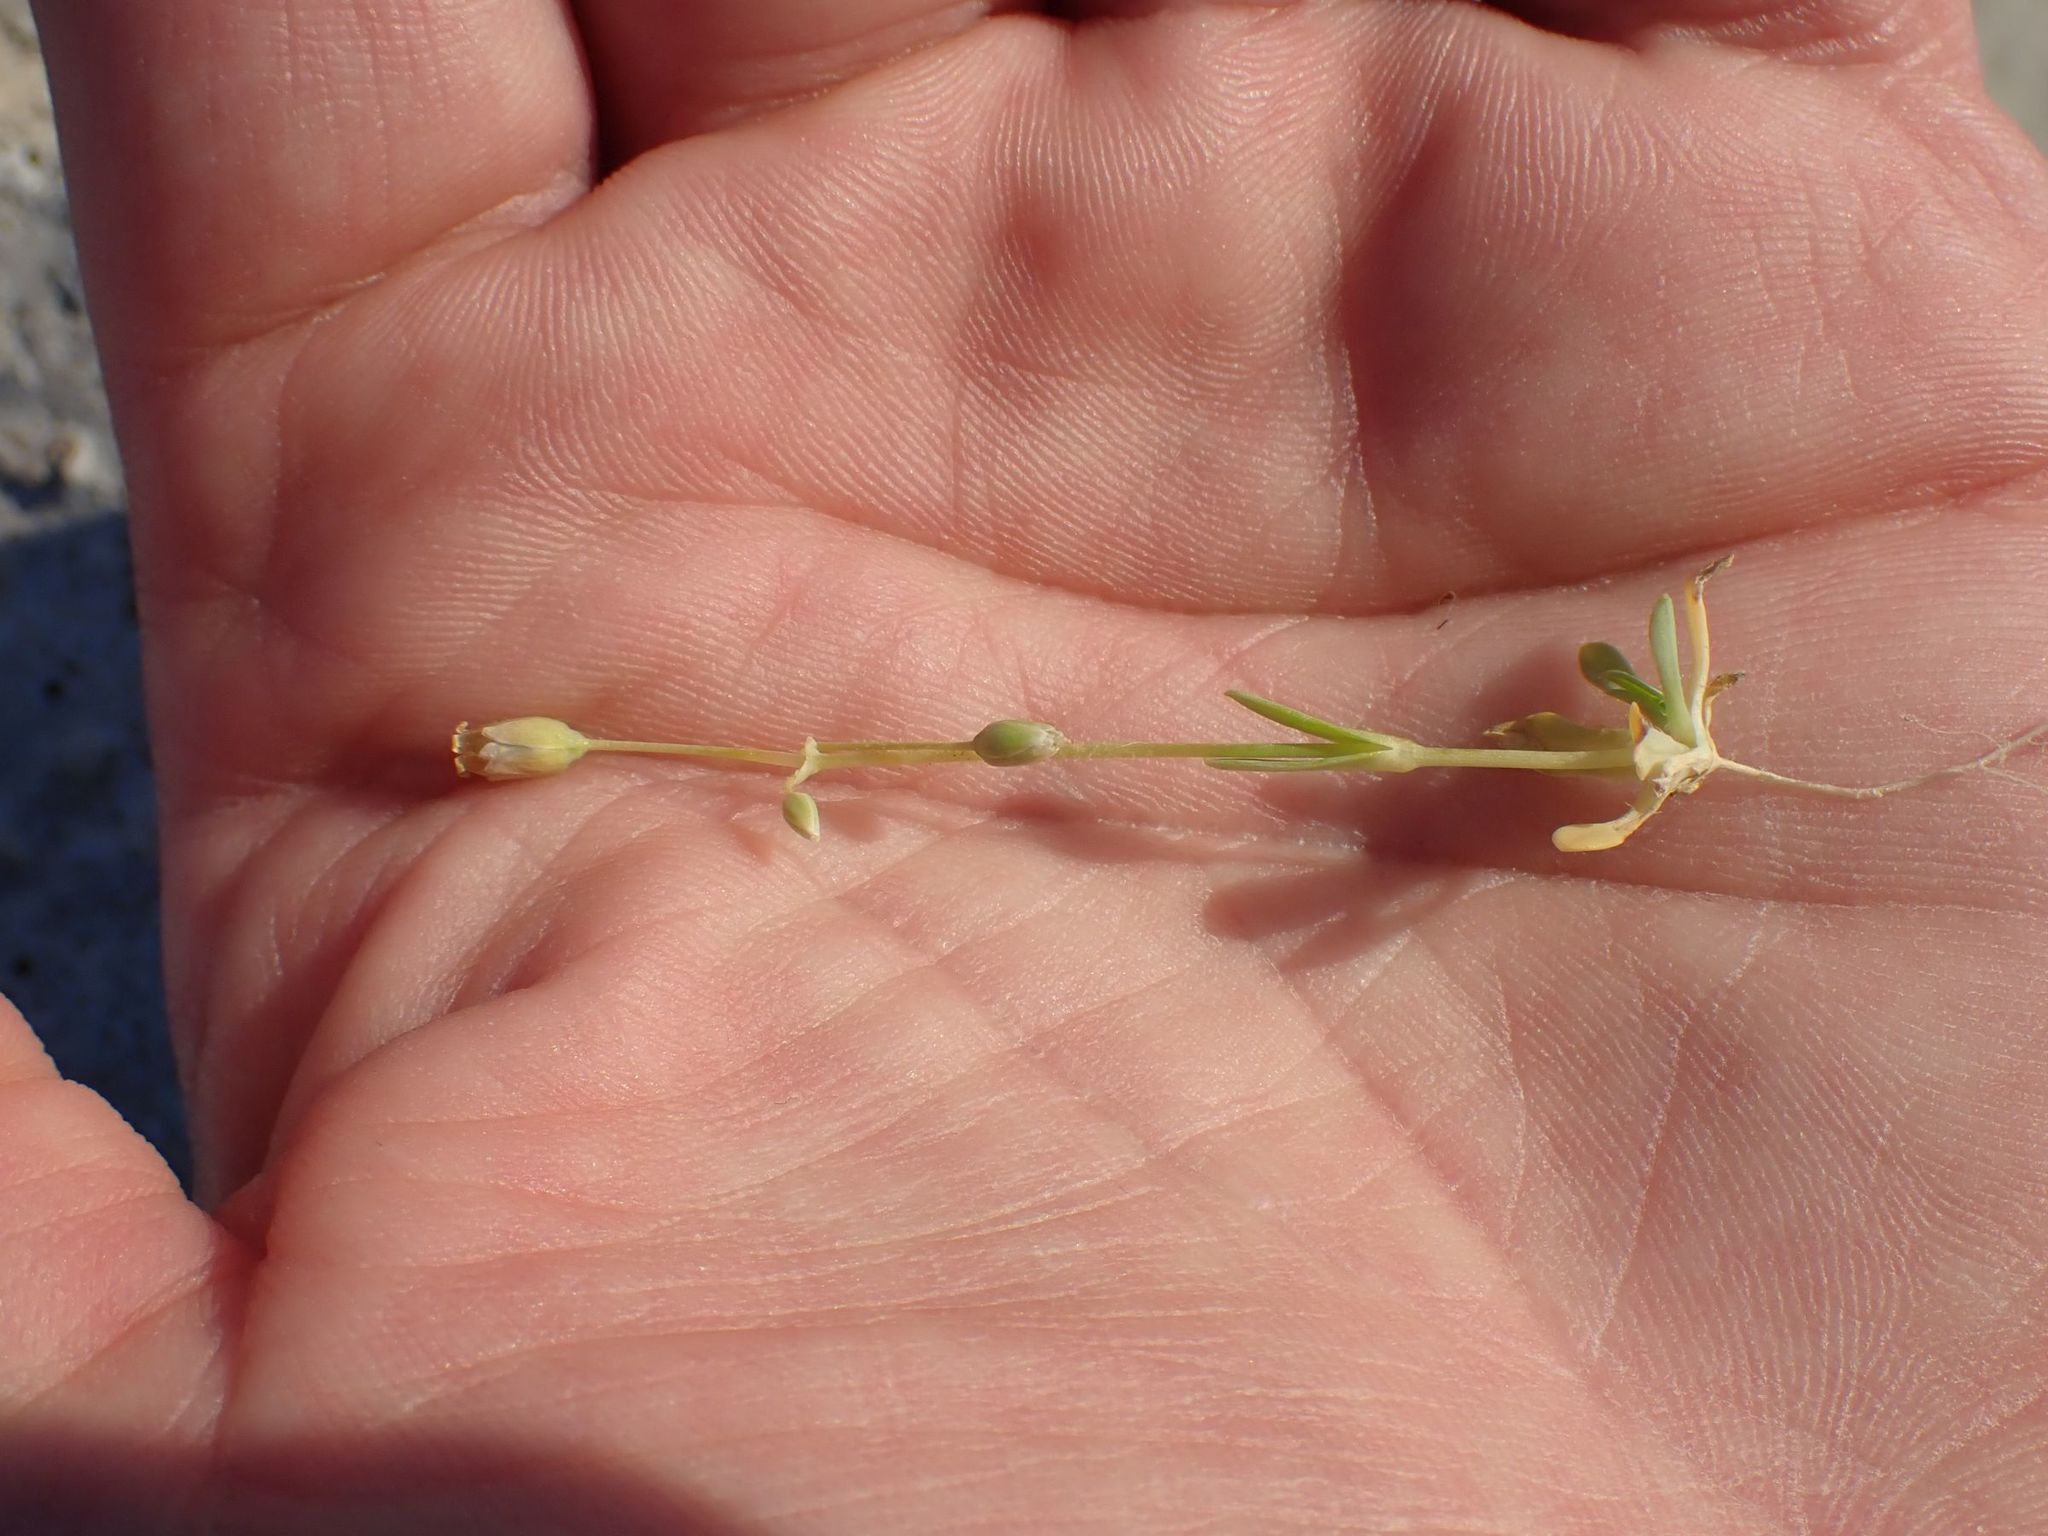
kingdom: Plantae
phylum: Tracheophyta
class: Magnoliopsida
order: Caryophyllales
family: Caryophyllaceae
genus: Holosteum
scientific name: Holosteum umbellatum
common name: Jagged chickweed
